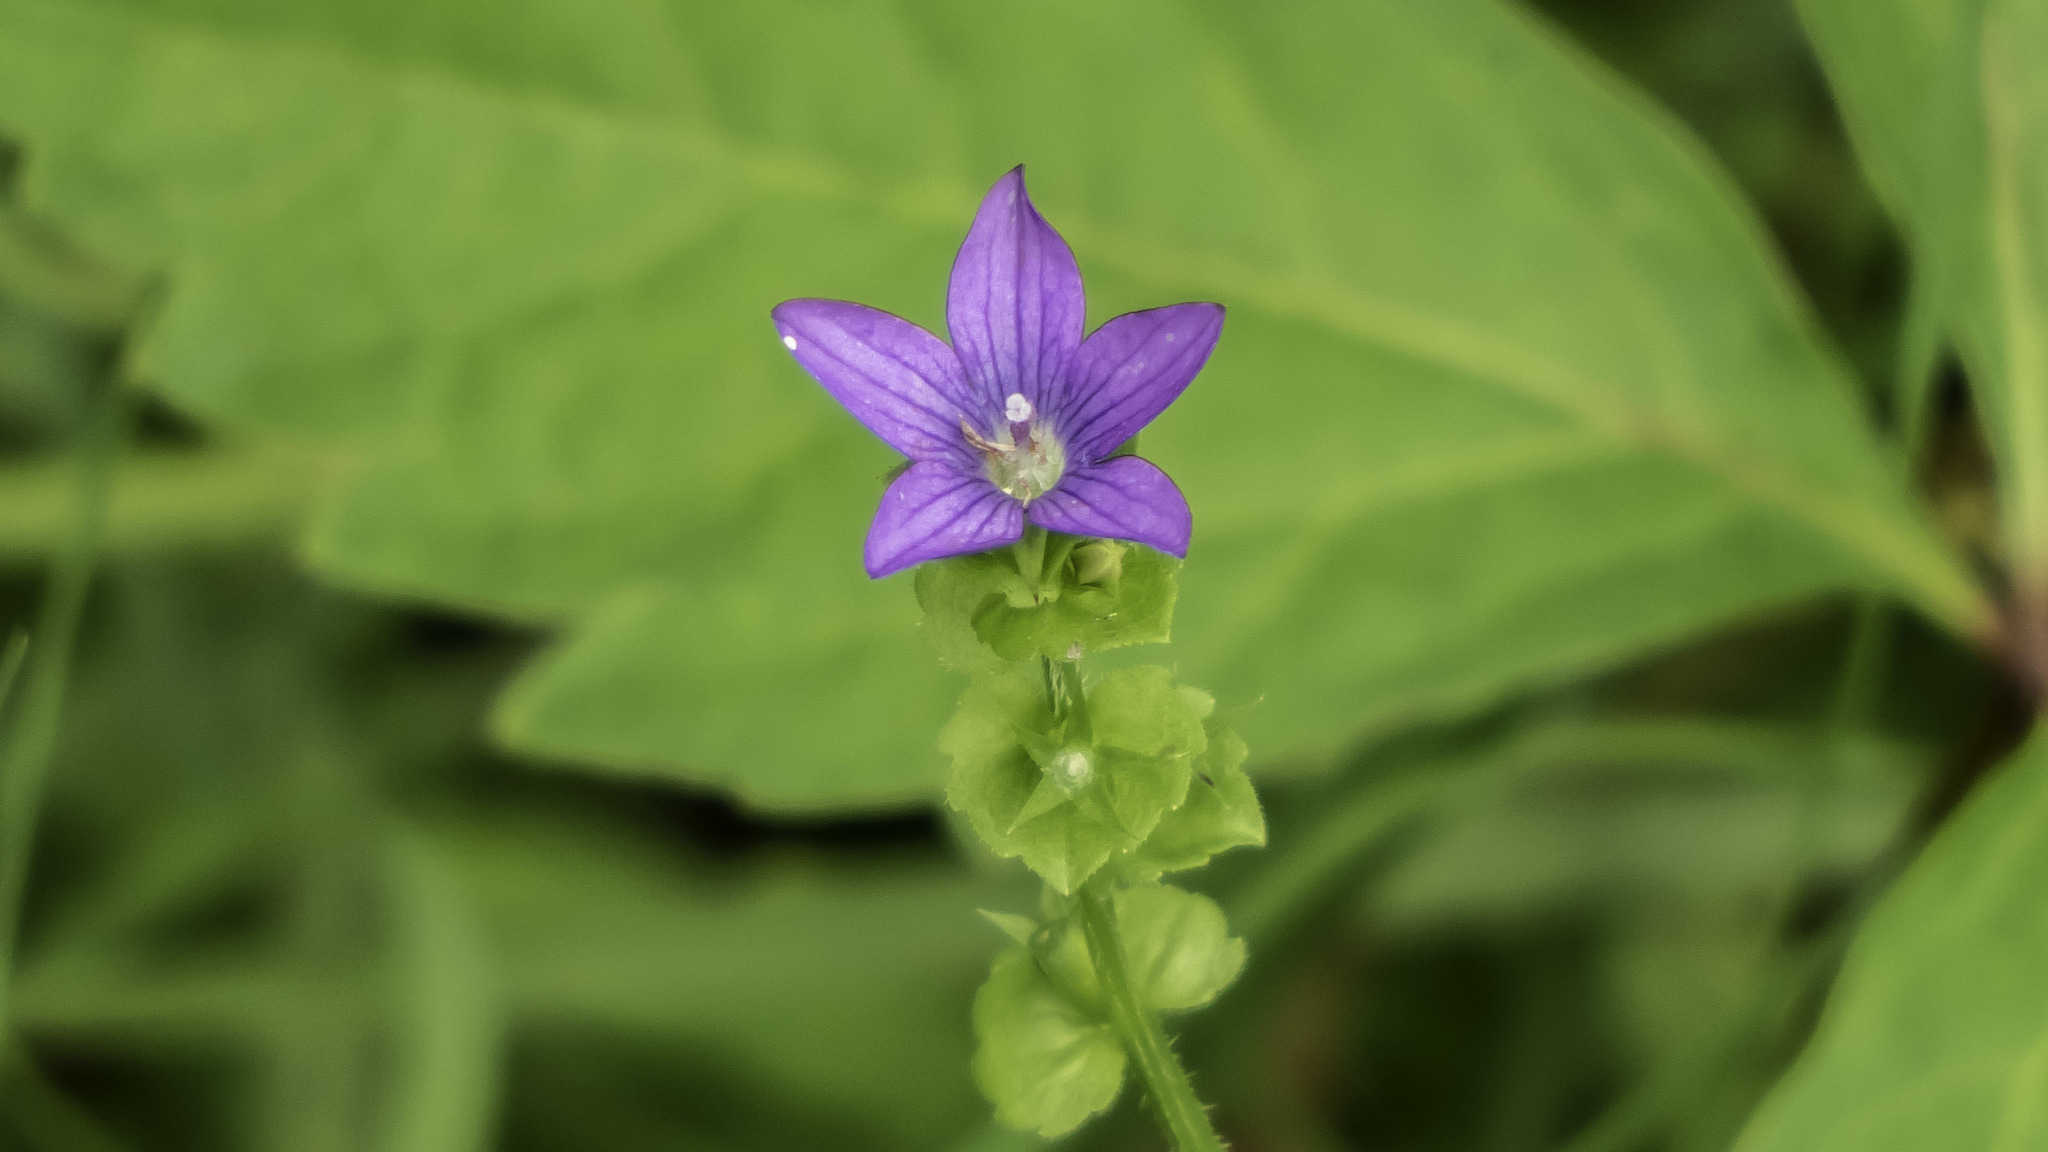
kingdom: Plantae
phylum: Tracheophyta
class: Magnoliopsida
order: Asterales
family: Campanulaceae
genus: Triodanis
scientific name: Triodanis perfoliata
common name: Clasping venus' looking-glass
